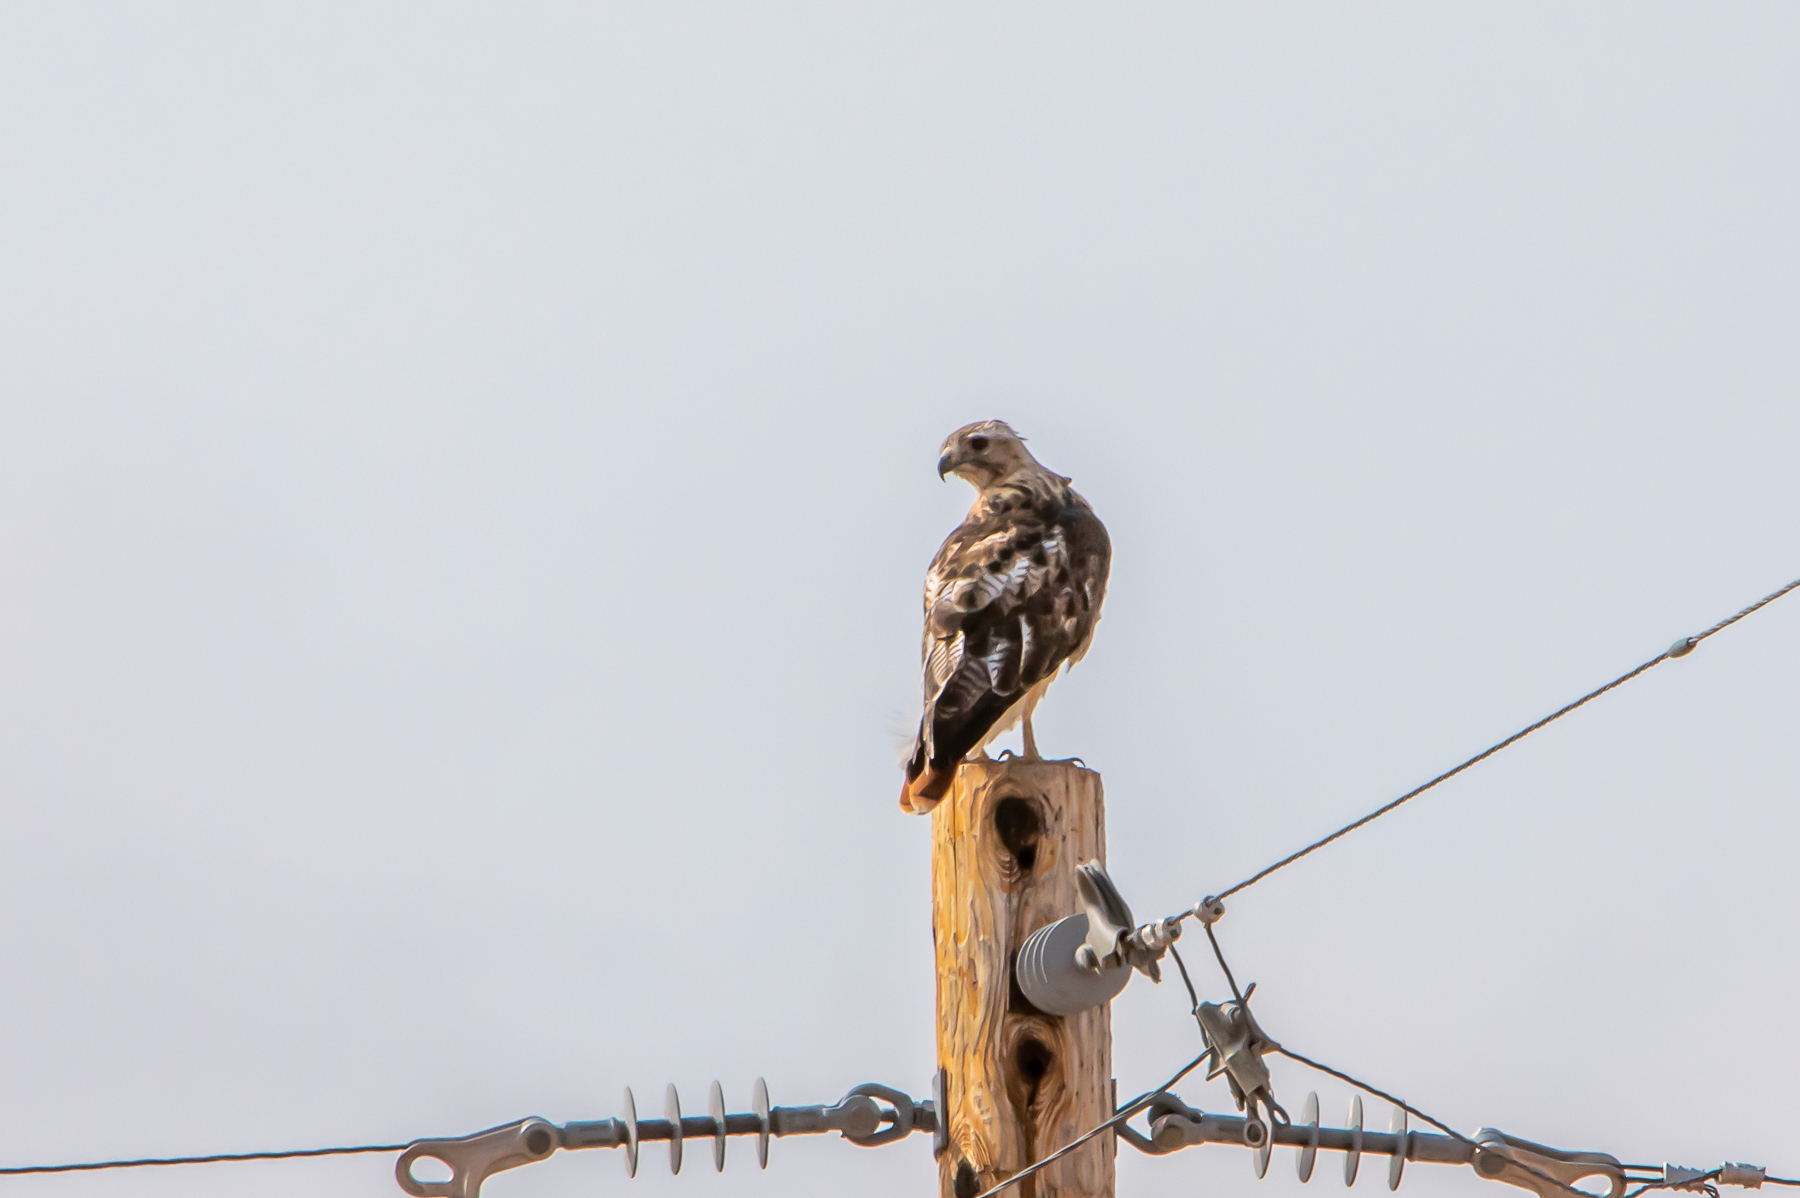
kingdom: Animalia
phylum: Chordata
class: Aves
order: Accipitriformes
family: Accipitridae
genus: Buteo
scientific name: Buteo jamaicensis
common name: Red-tailed hawk
